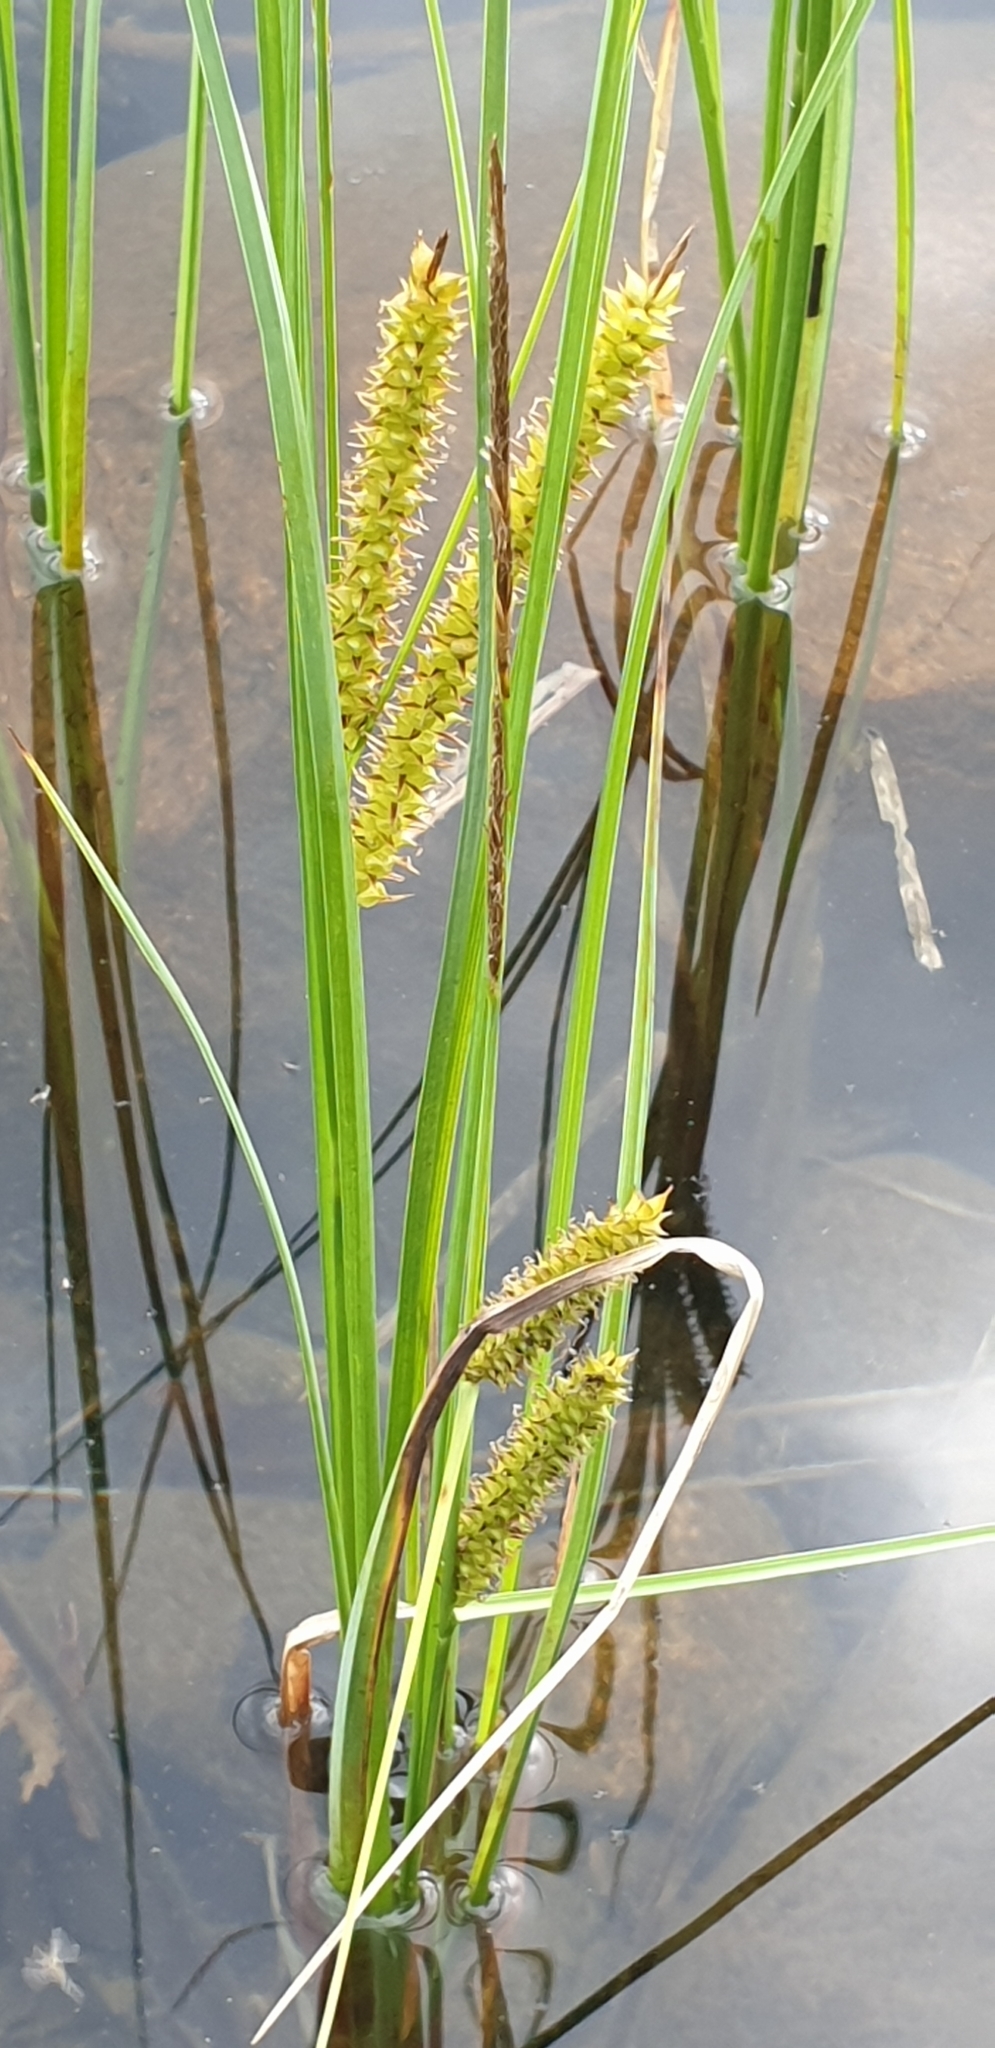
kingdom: Plantae
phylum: Tracheophyta
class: Liliopsida
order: Poales
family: Cyperaceae
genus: Carex
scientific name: Carex rostrata
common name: Bottle sedge
